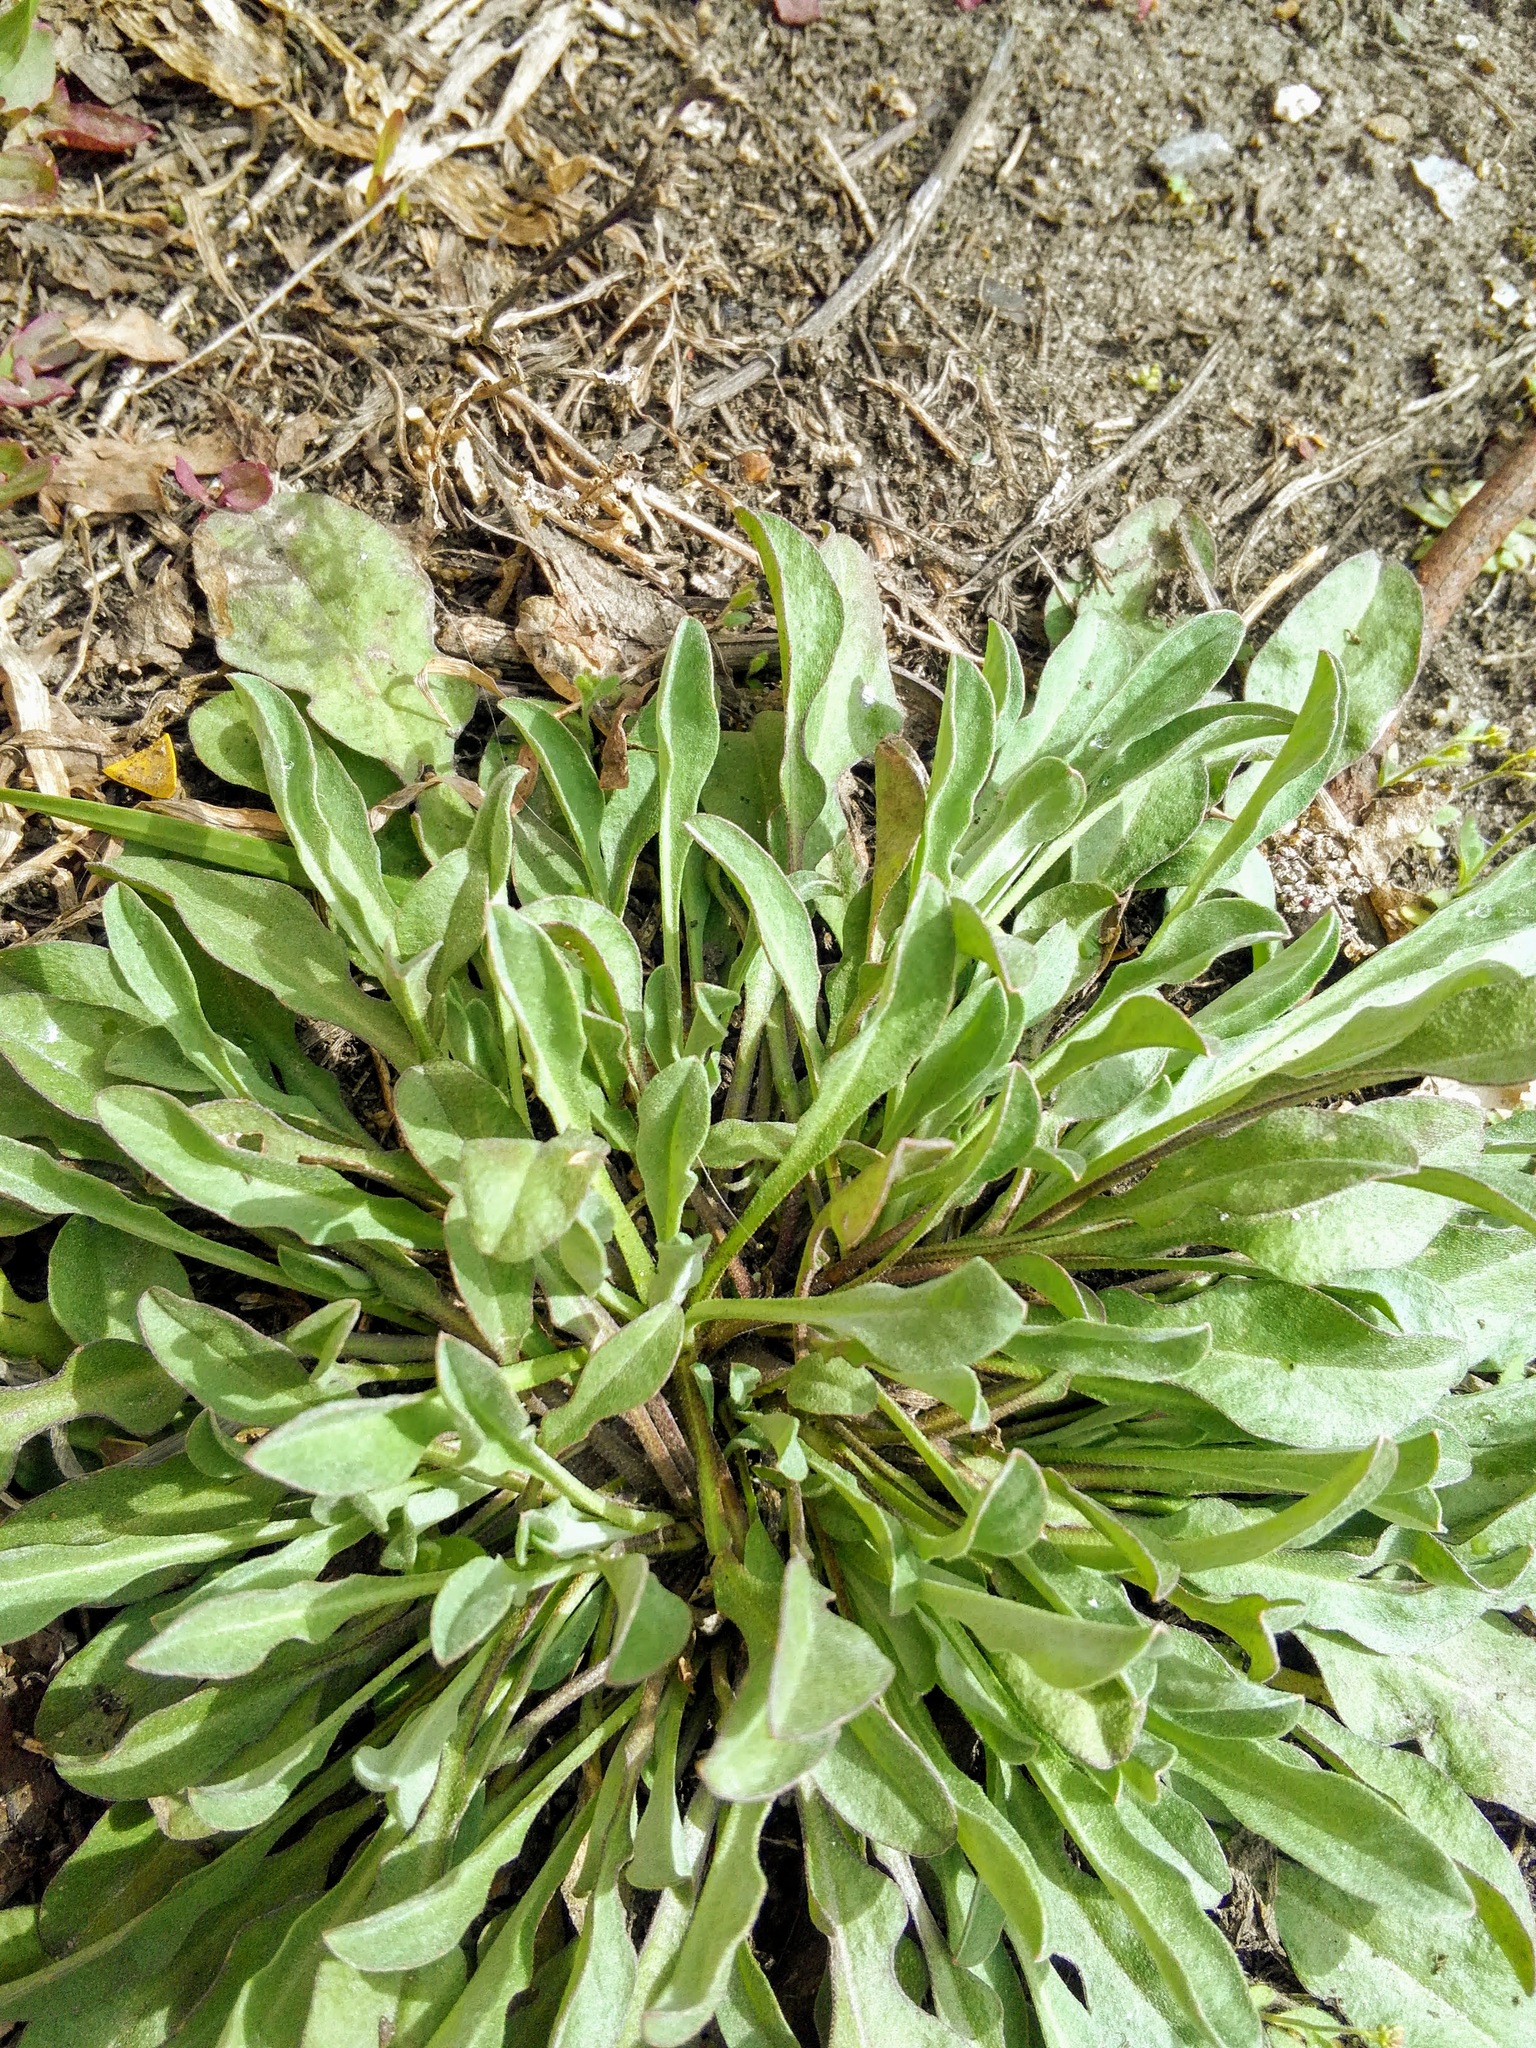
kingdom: Plantae
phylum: Tracheophyta
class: Magnoliopsida
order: Brassicales
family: Brassicaceae
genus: Berteroa
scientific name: Berteroa incana
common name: Hoary alison
